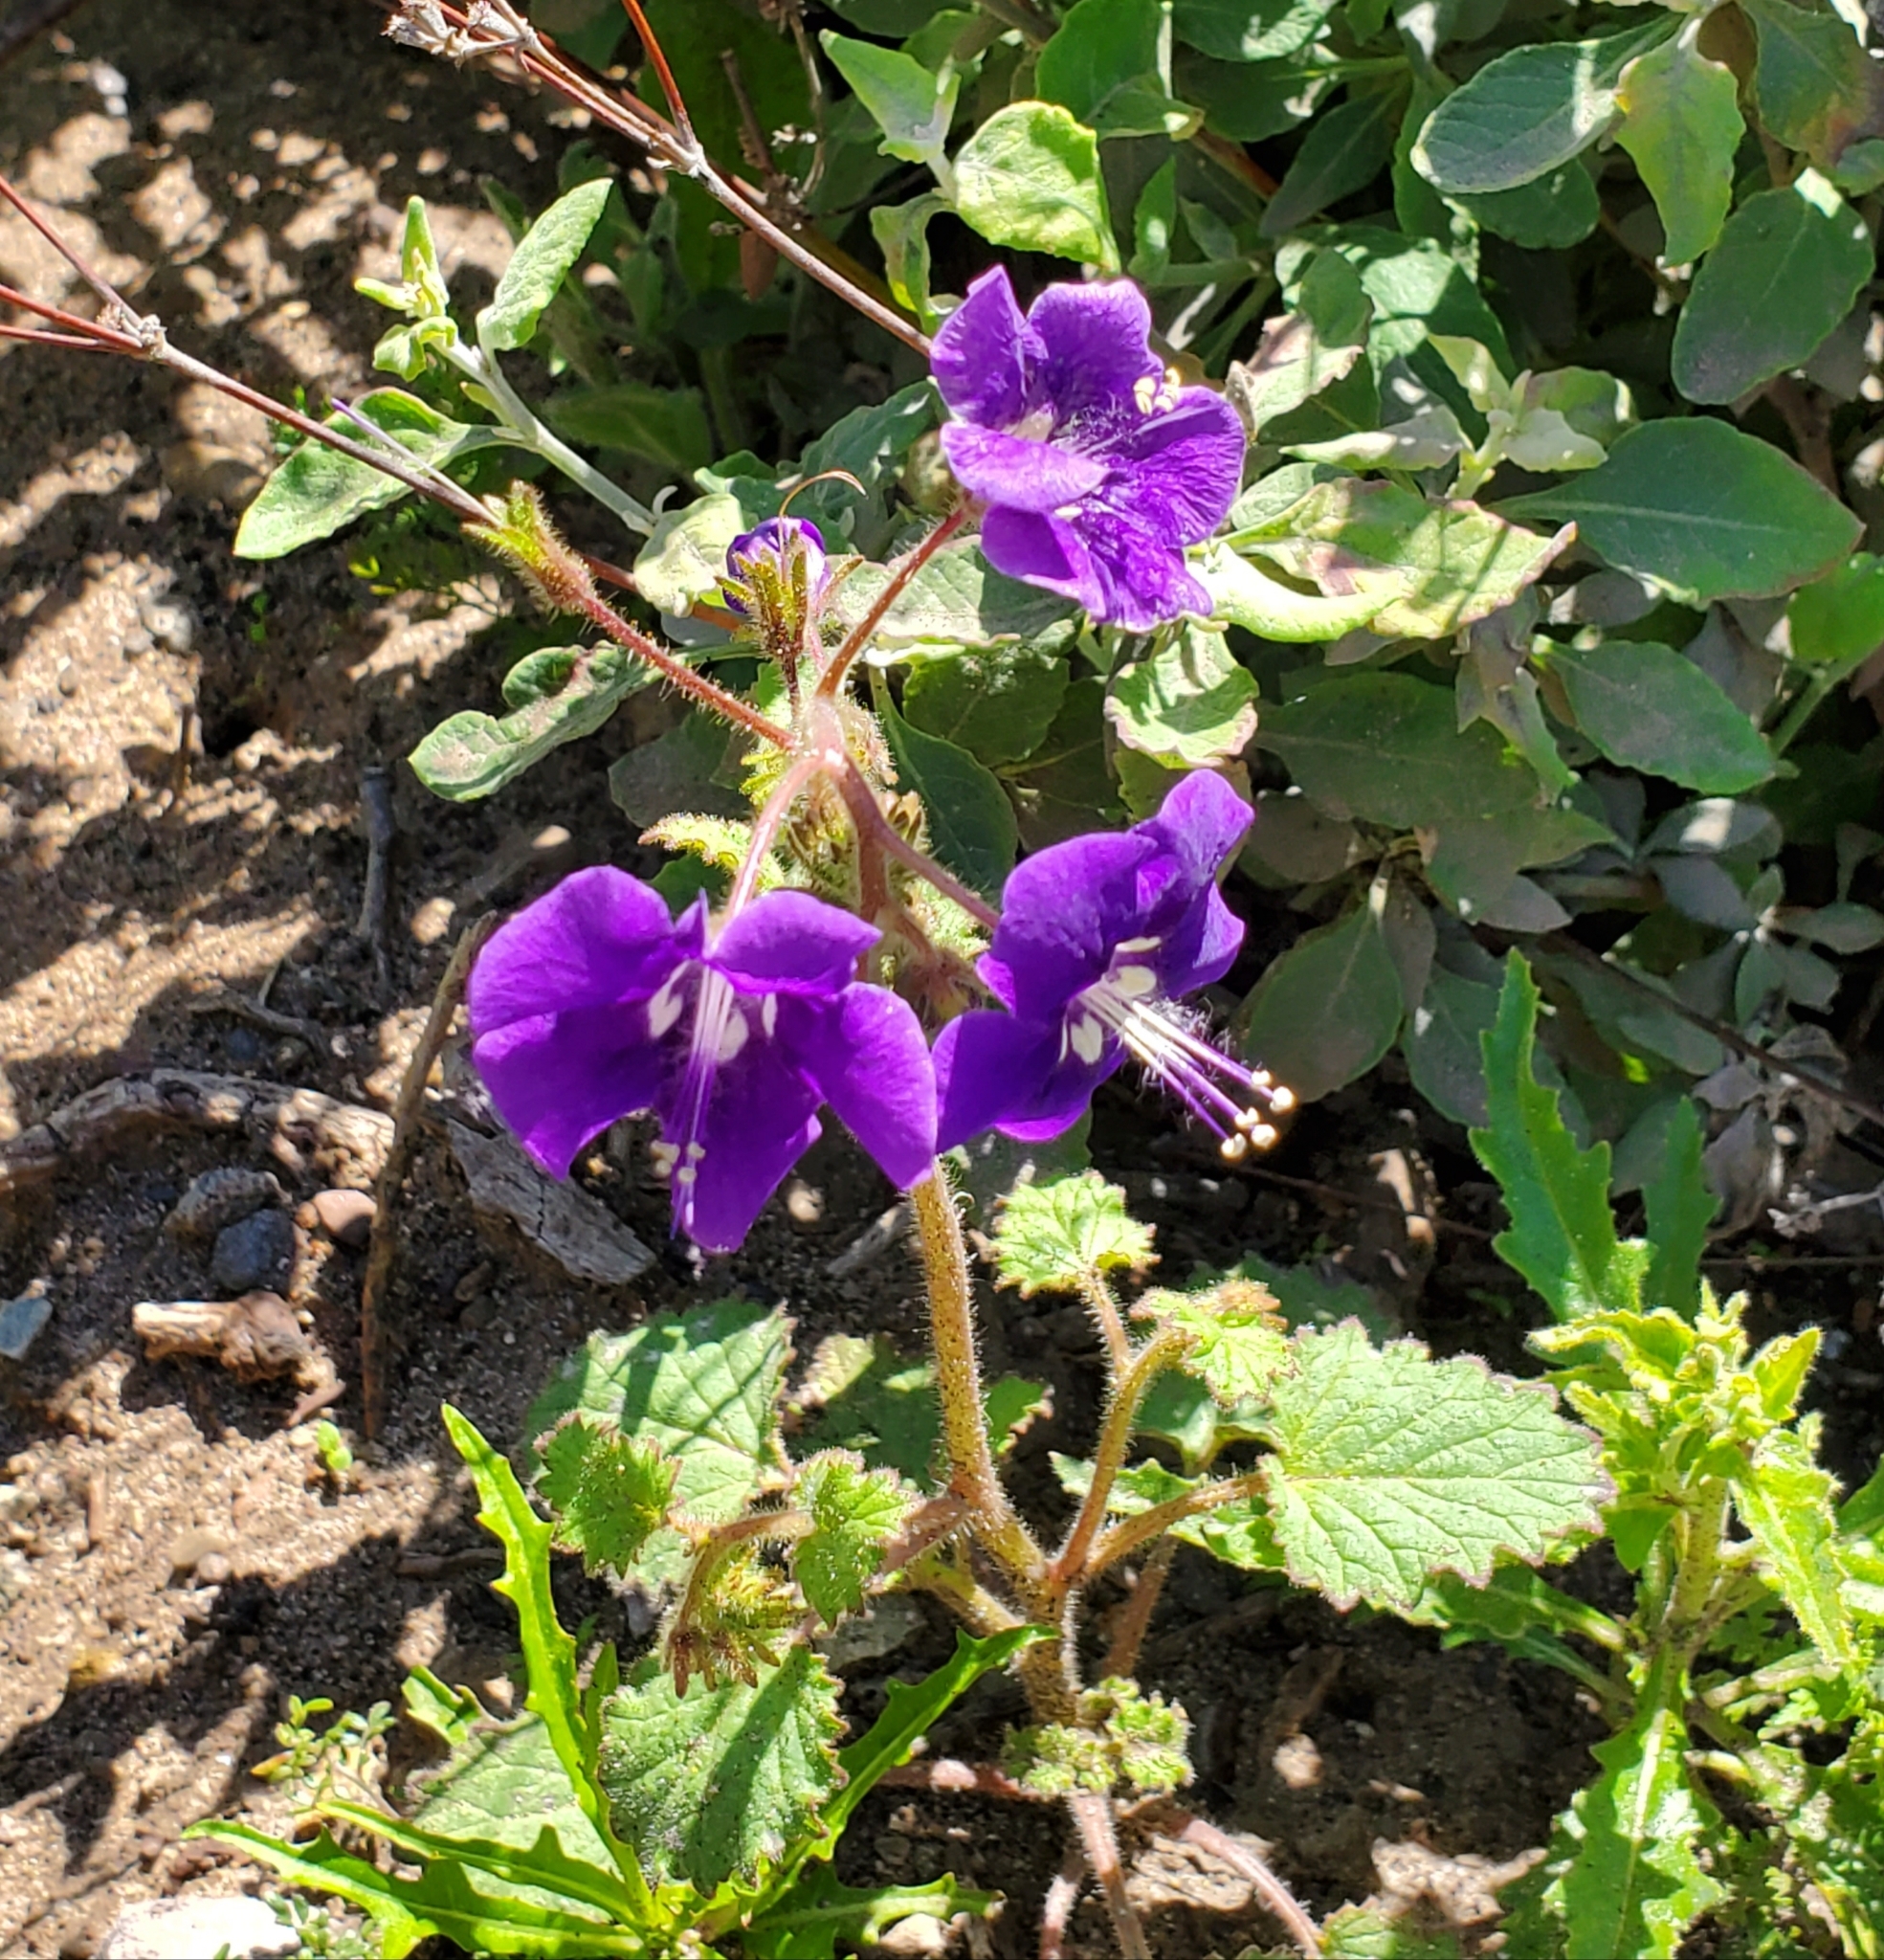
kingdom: Plantae
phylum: Tracheophyta
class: Magnoliopsida
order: Boraginales
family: Hydrophyllaceae
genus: Phacelia
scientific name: Phacelia parryi
